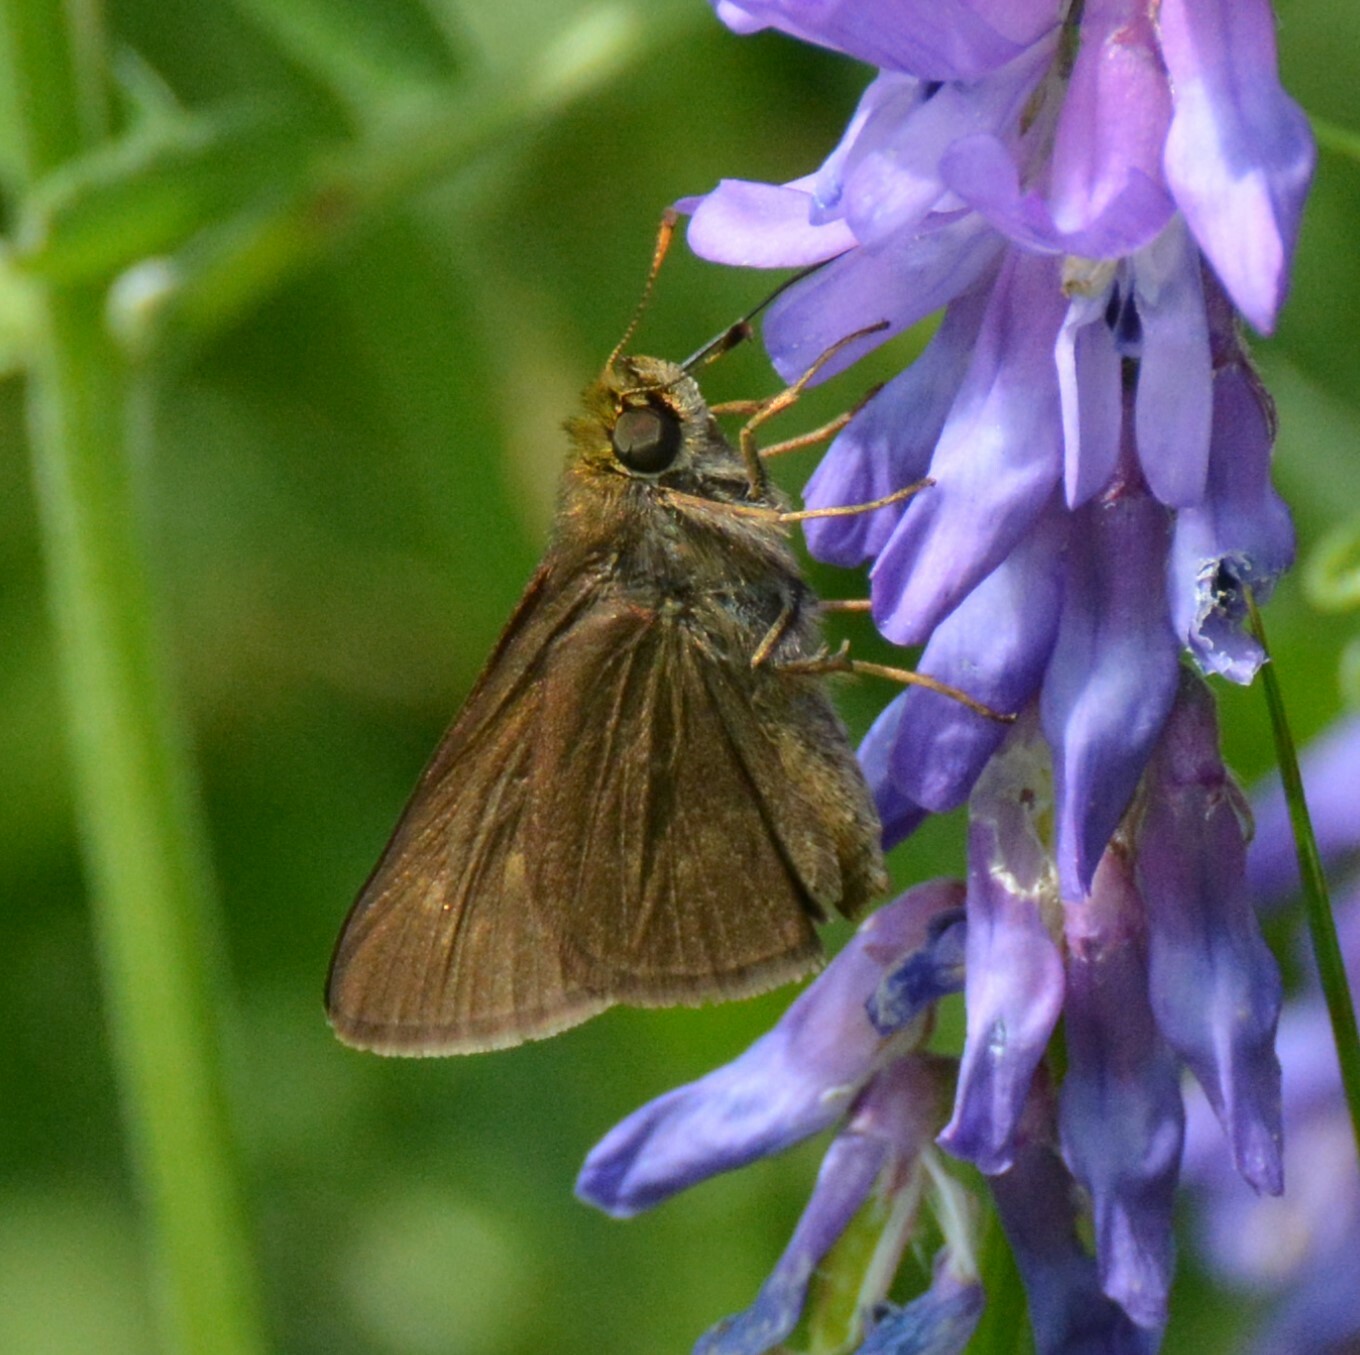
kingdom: Animalia
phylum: Arthropoda
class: Insecta
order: Lepidoptera
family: Hesperiidae
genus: Euphyes
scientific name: Euphyes vestris
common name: Dun skipper
